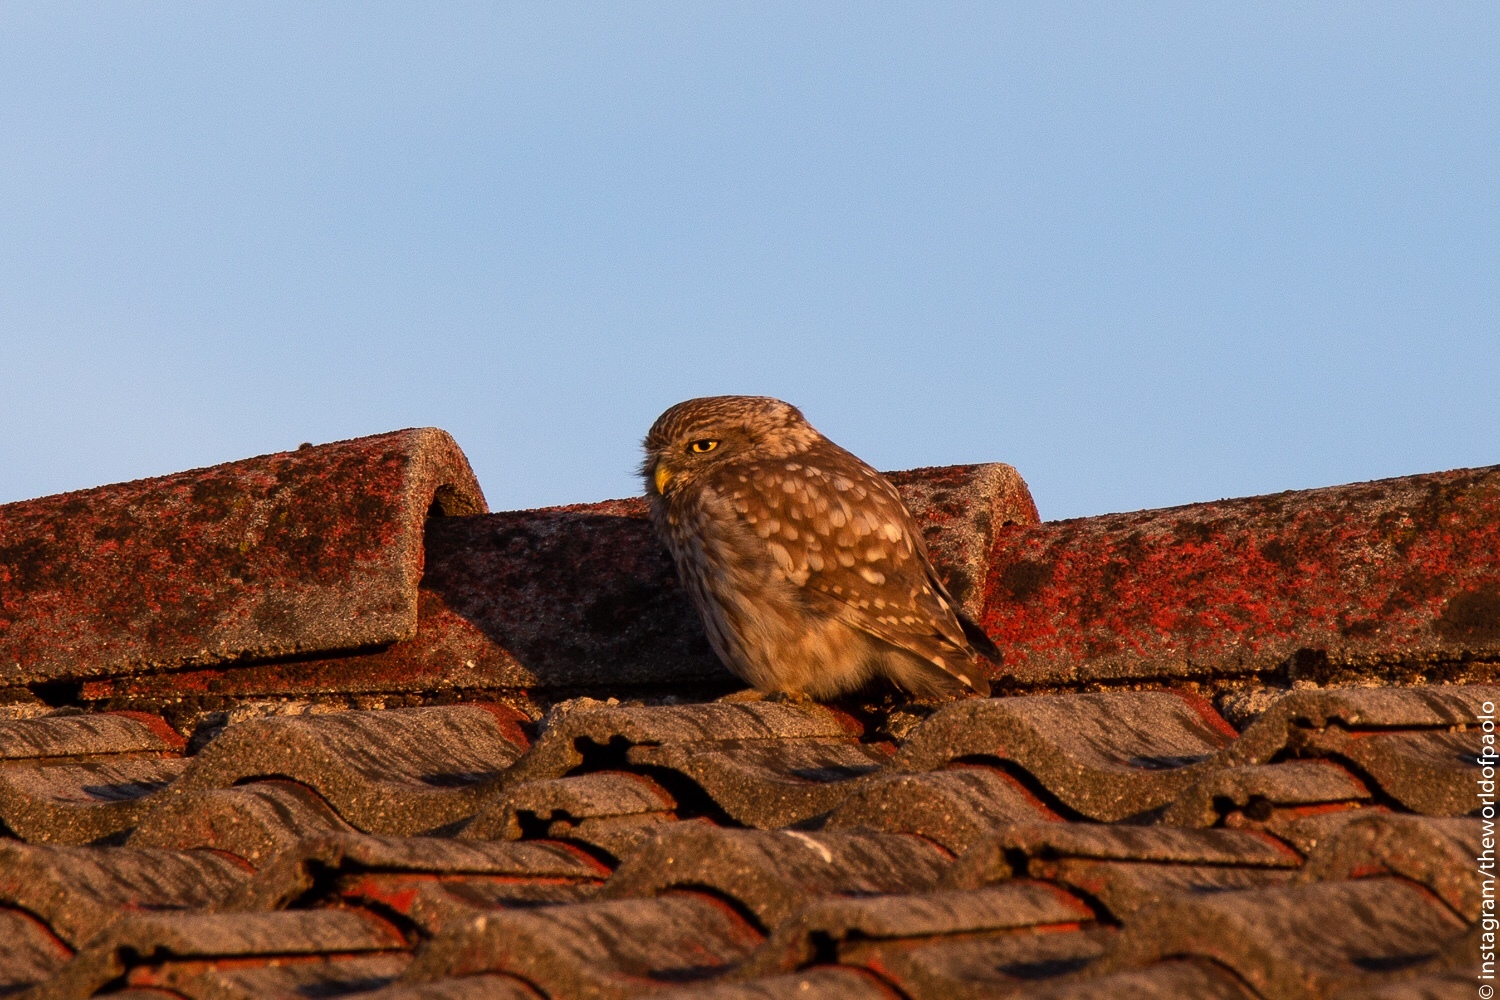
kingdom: Animalia
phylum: Chordata
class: Aves
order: Strigiformes
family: Strigidae
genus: Athene
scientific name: Athene noctua
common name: Little owl
